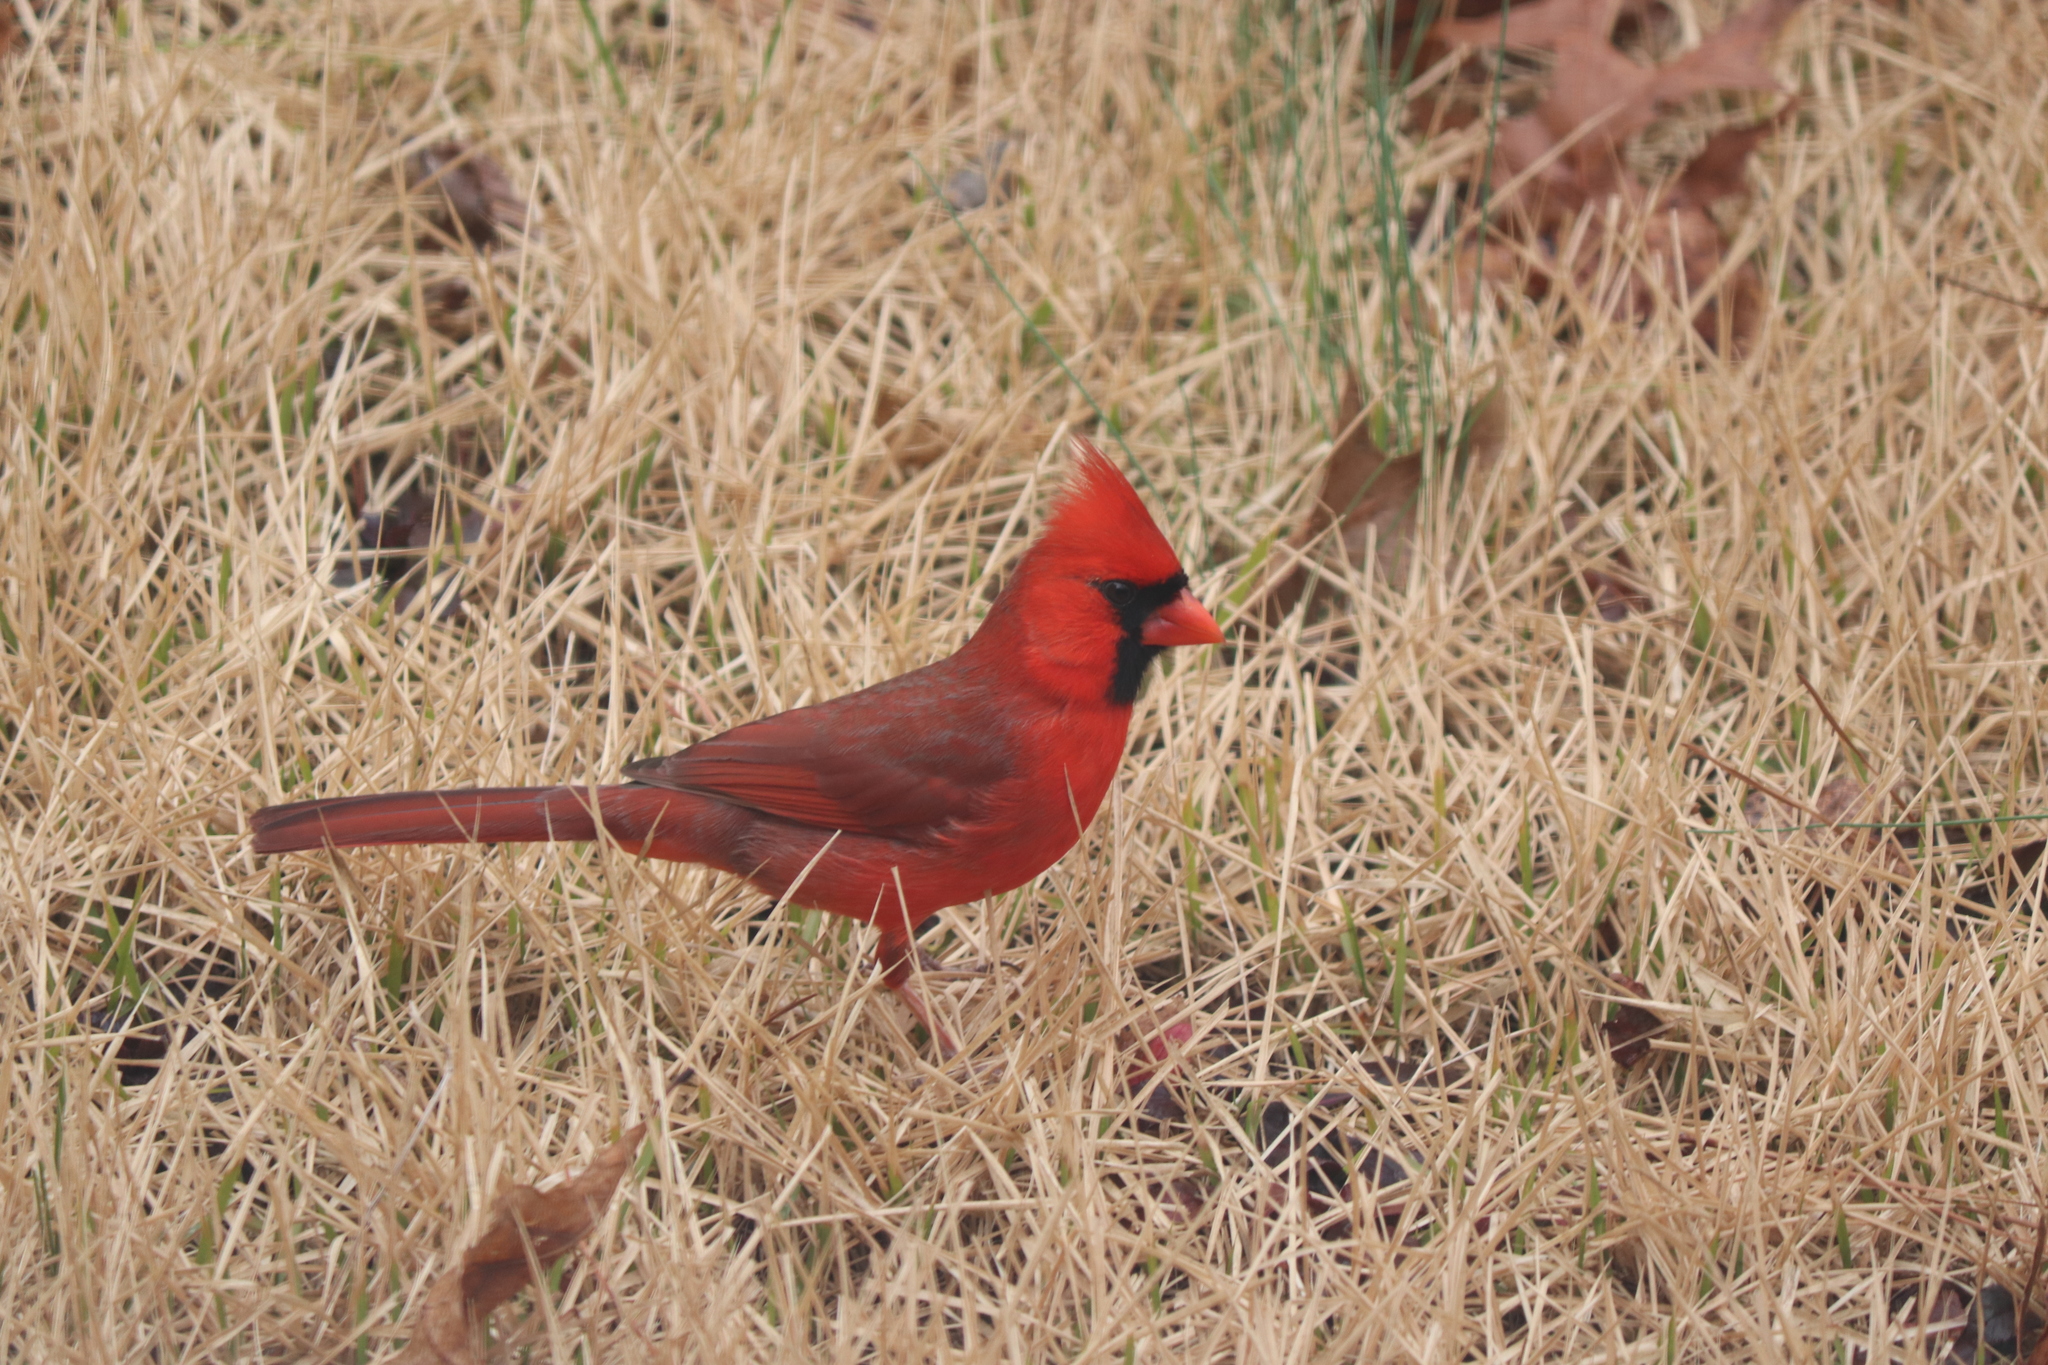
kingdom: Animalia
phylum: Chordata
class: Aves
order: Passeriformes
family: Cardinalidae
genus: Cardinalis
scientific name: Cardinalis cardinalis
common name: Northern cardinal
